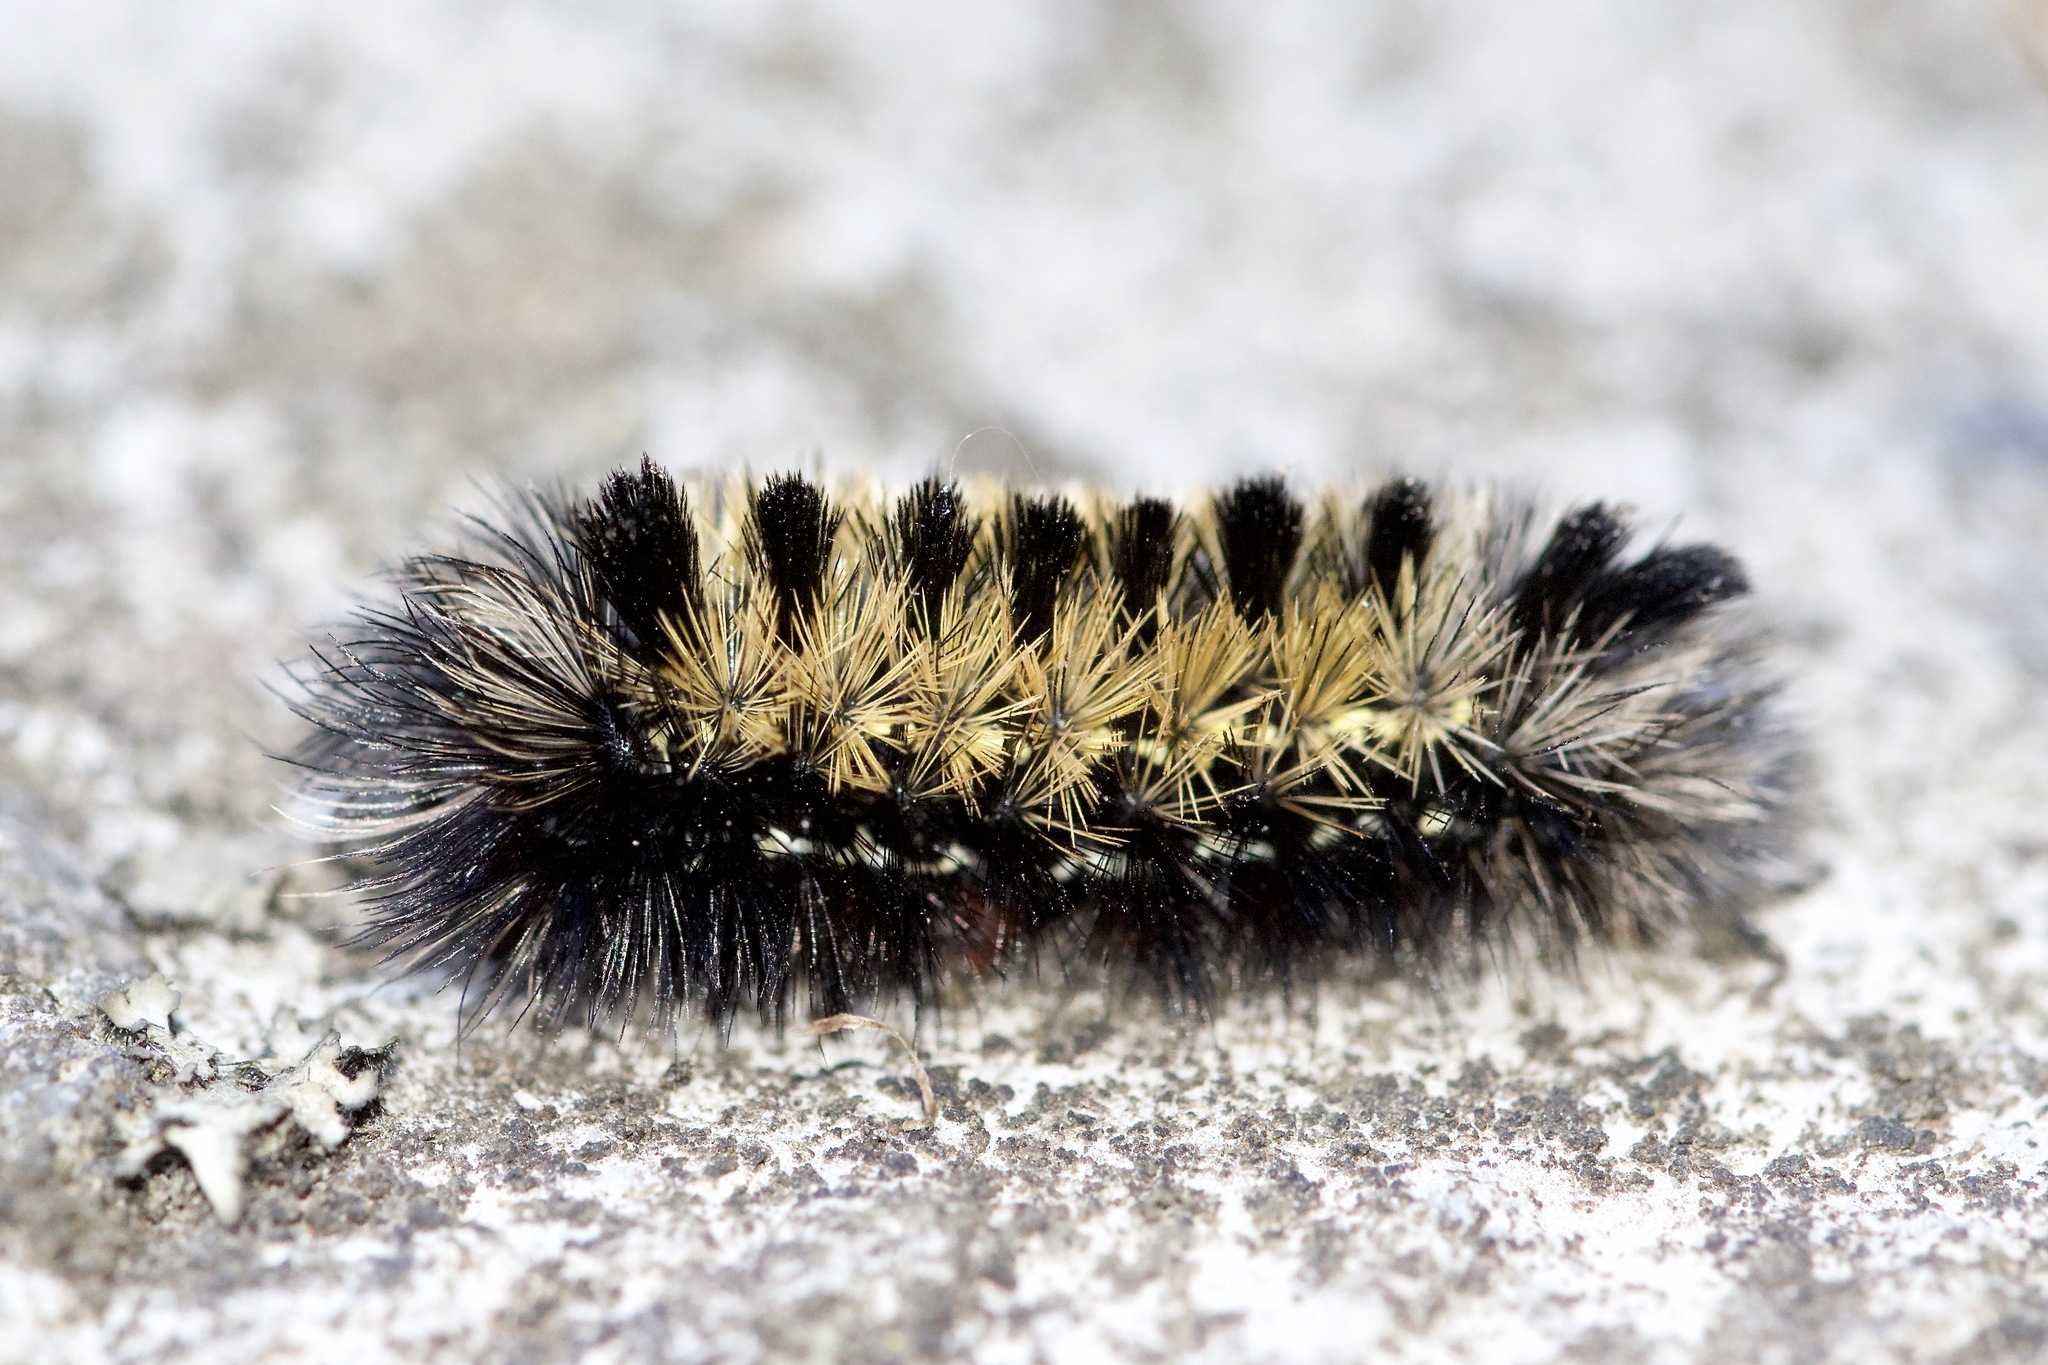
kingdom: Animalia
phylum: Arthropoda
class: Insecta
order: Lepidoptera
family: Erebidae
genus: Ctenucha
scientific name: Ctenucha virginica
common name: Virginia ctenucha moth
